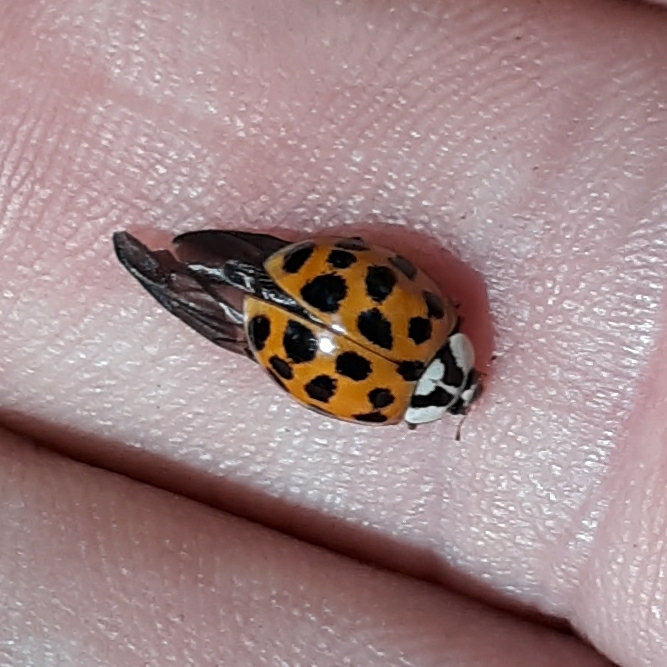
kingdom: Animalia
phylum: Arthropoda
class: Insecta
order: Coleoptera
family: Coccinellidae
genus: Harmonia
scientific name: Harmonia axyridis
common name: Harlequin ladybird
